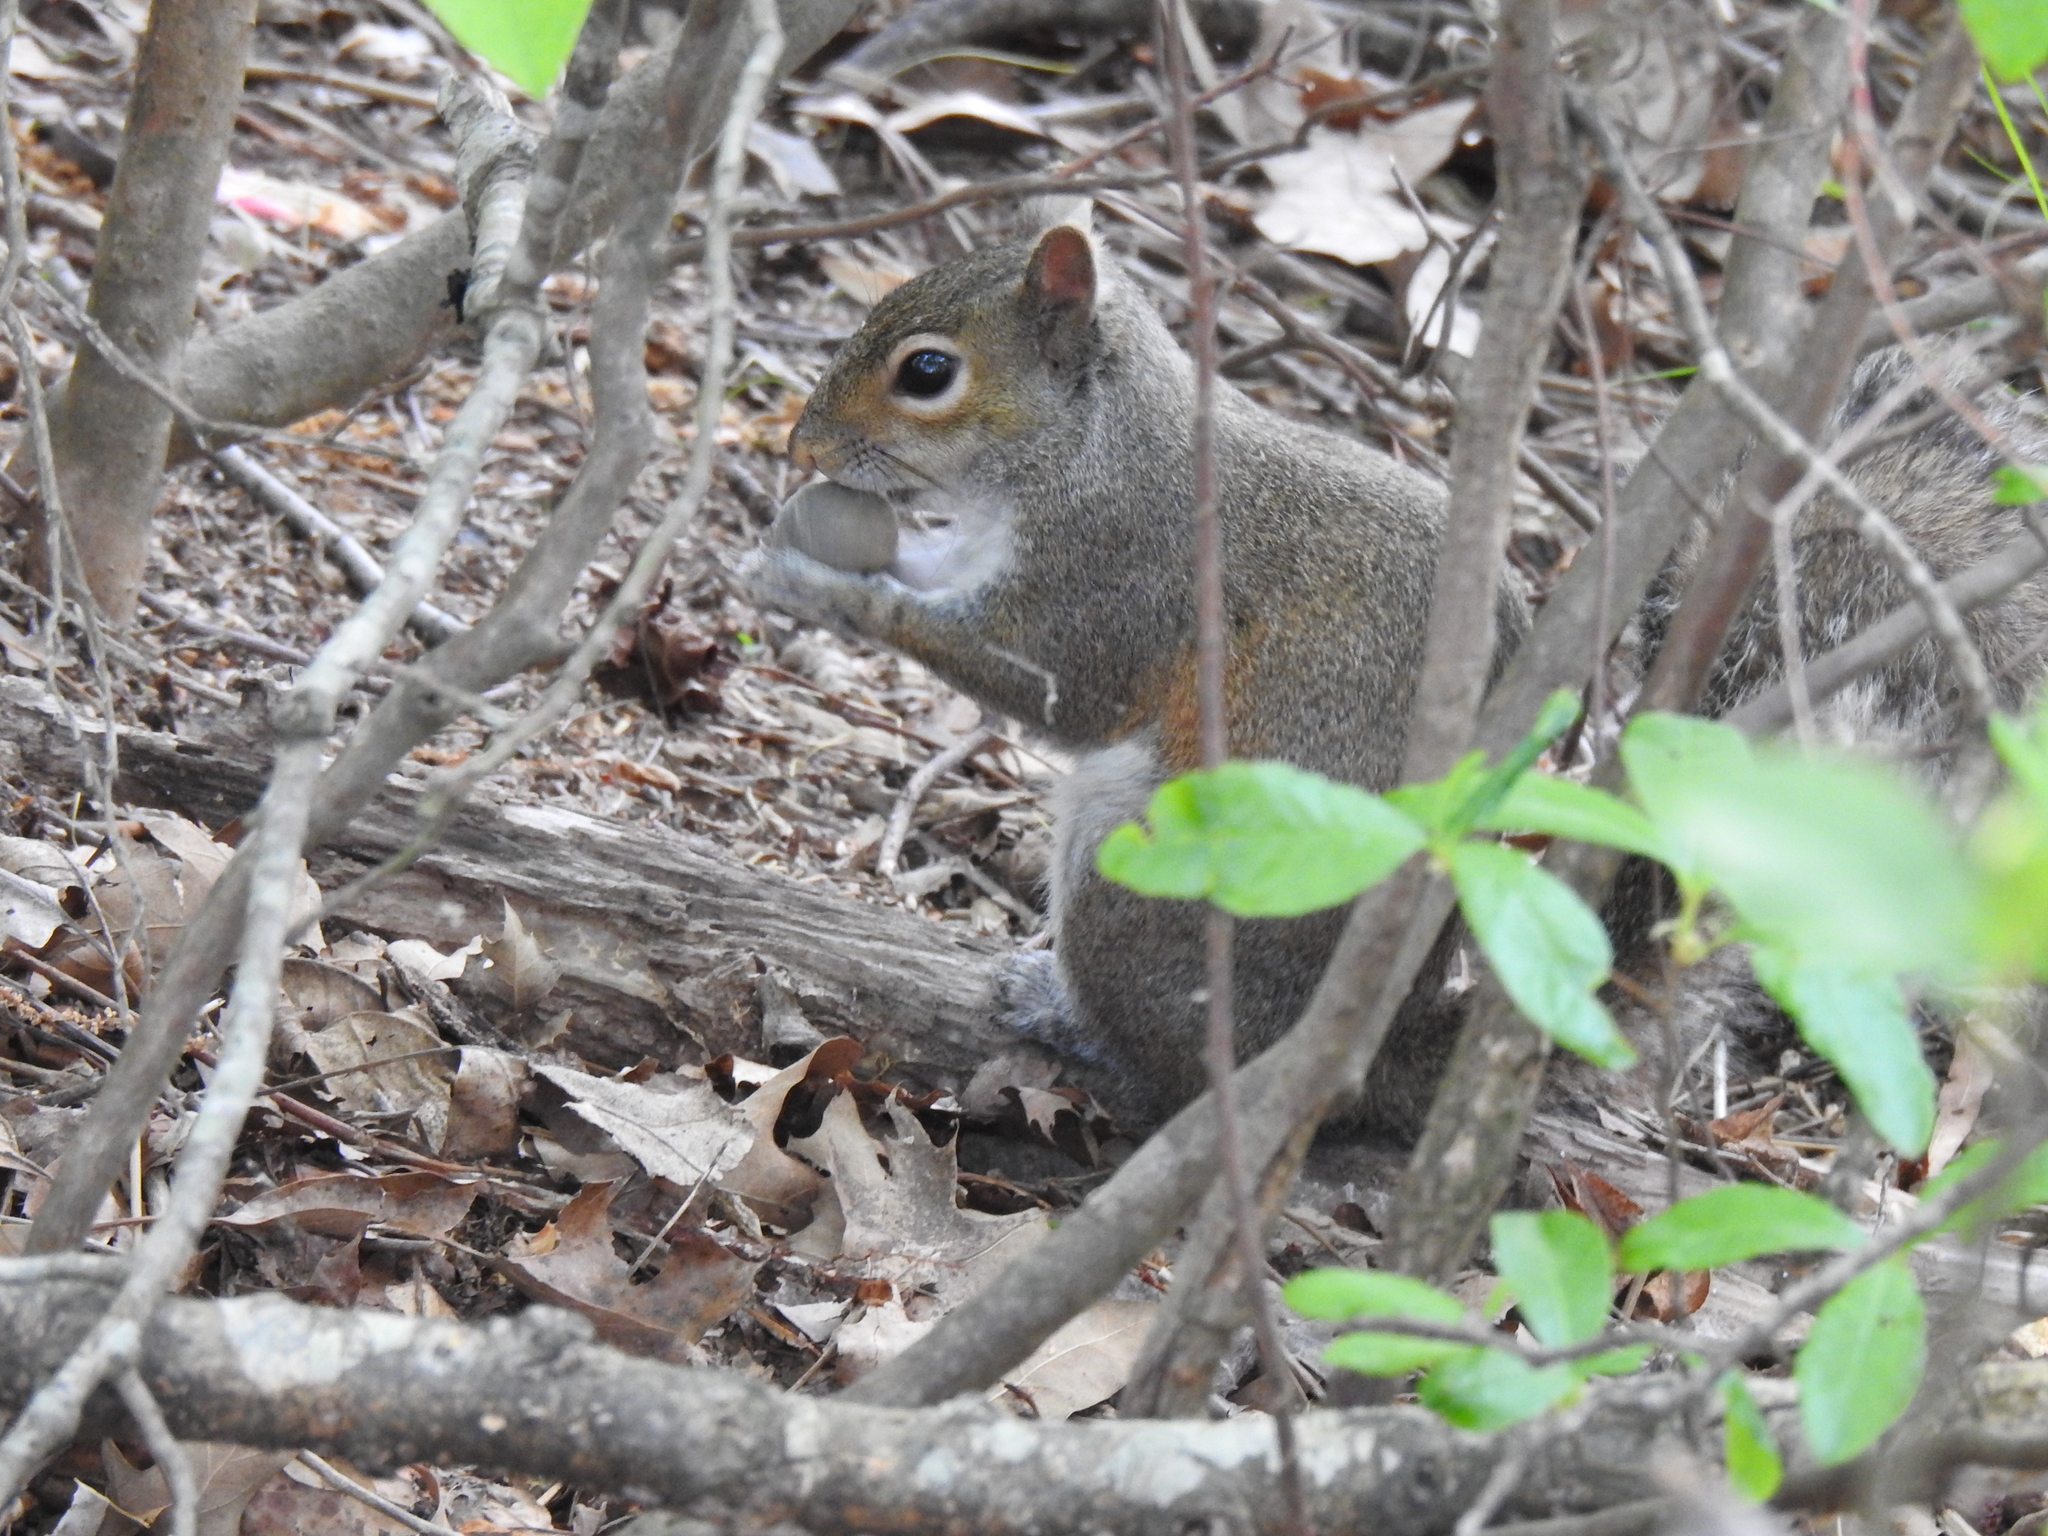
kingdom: Animalia
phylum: Chordata
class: Mammalia
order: Rodentia
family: Sciuridae
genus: Sciurus
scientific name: Sciurus carolinensis
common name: Eastern gray squirrel
